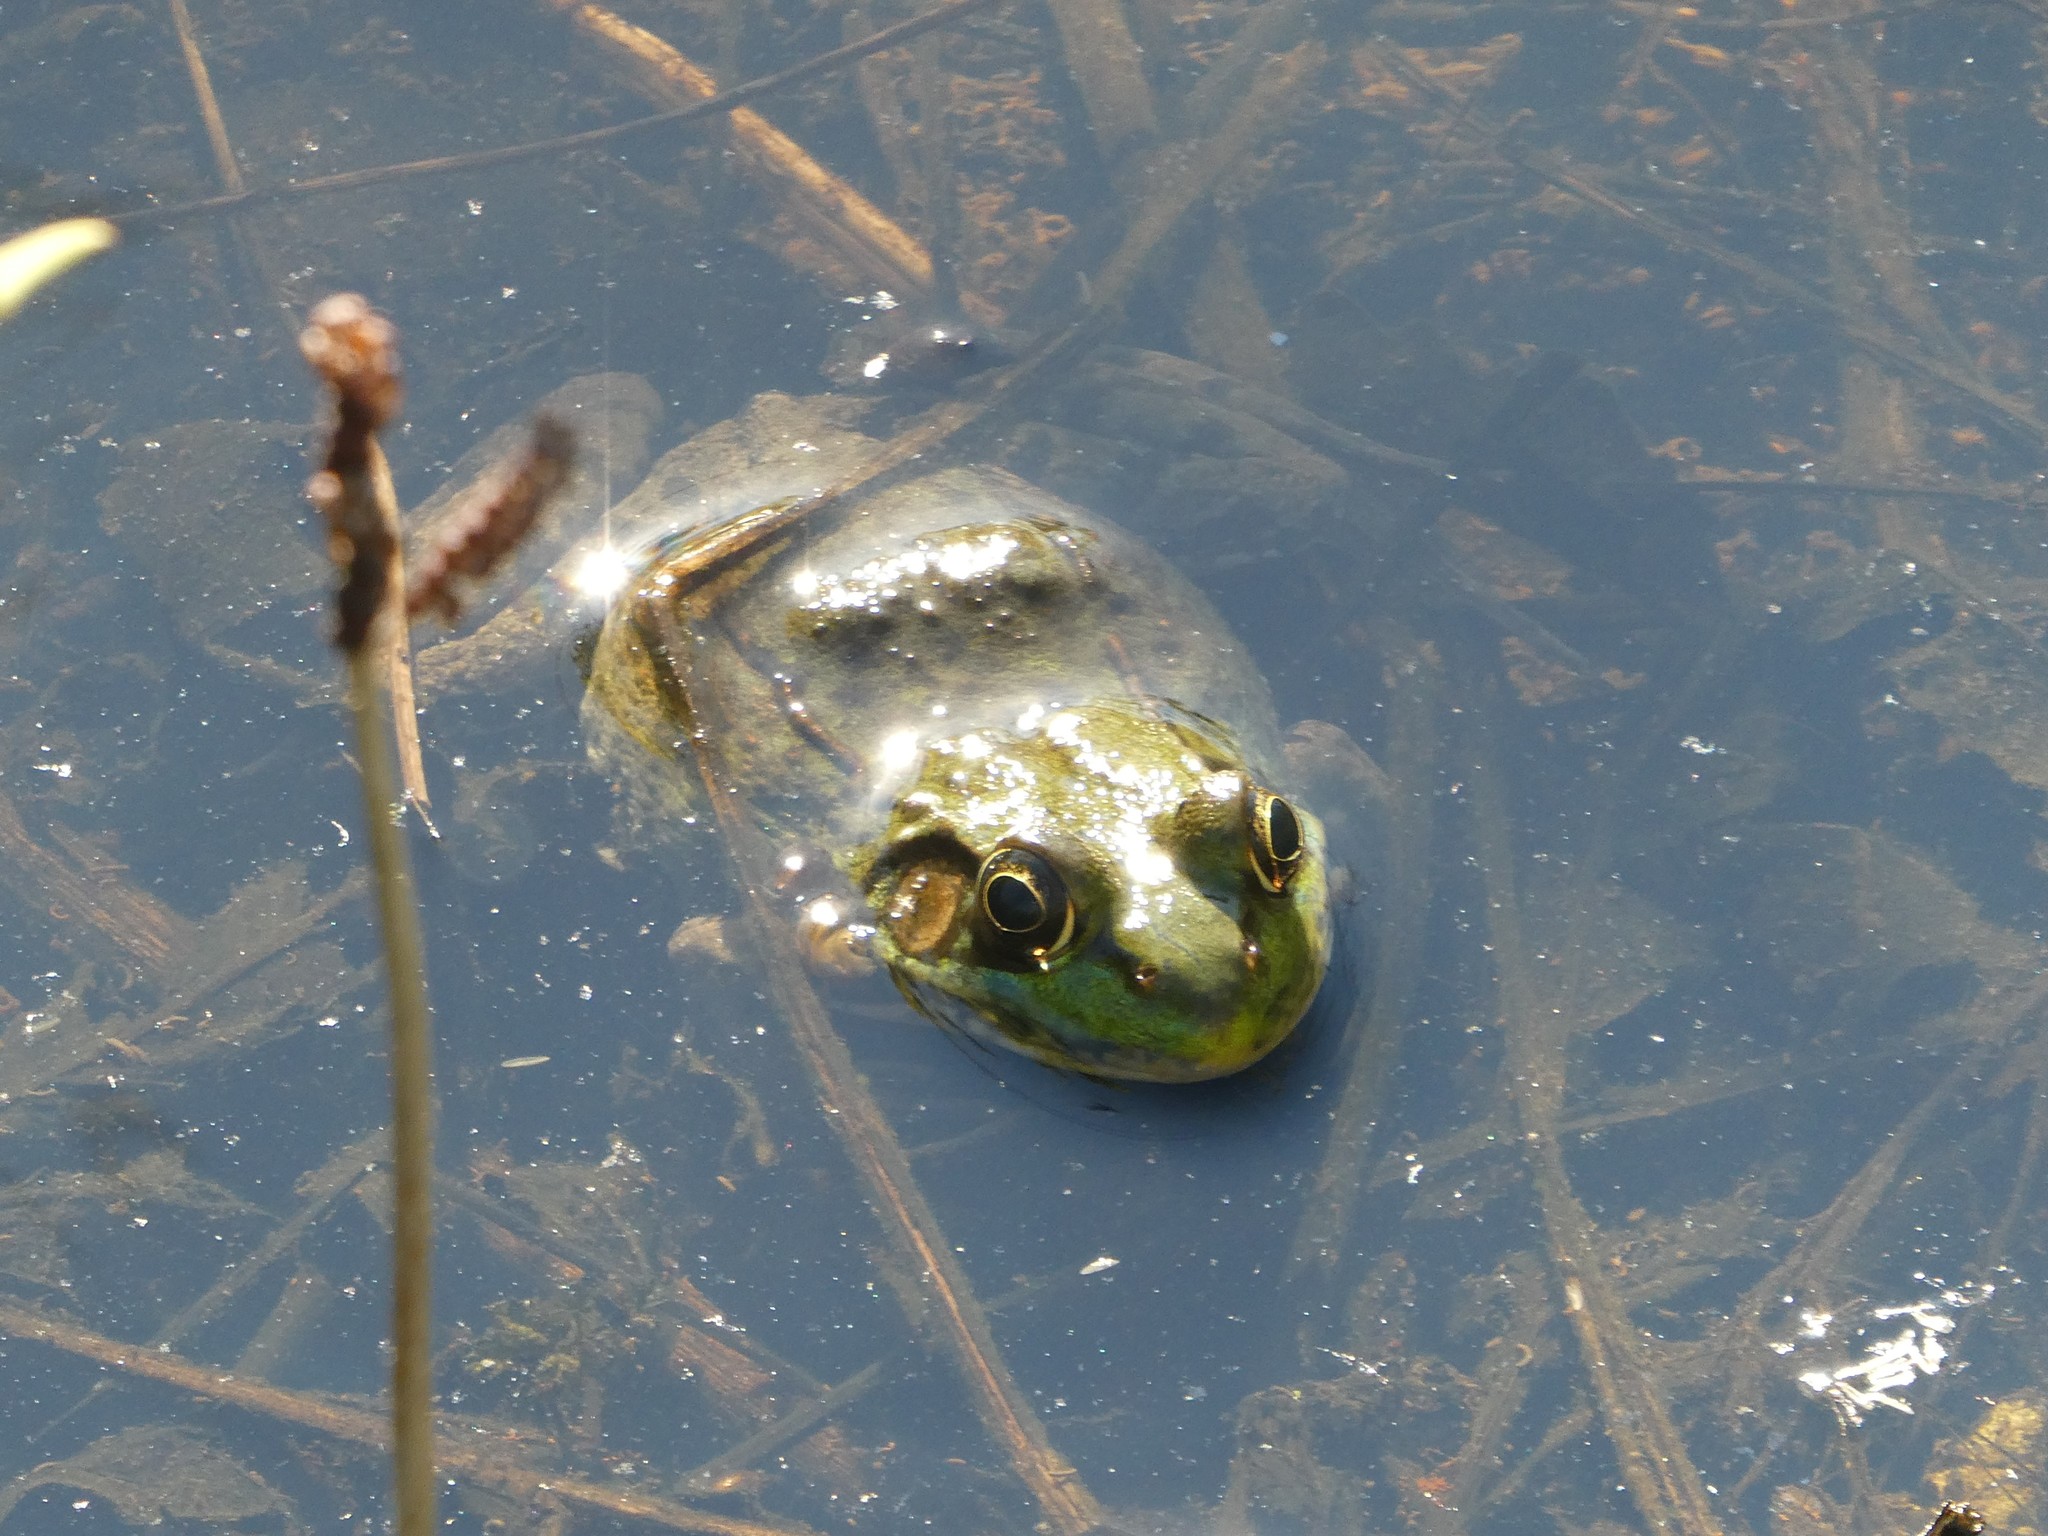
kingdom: Animalia
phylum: Chordata
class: Amphibia
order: Anura
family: Ranidae
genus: Lithobates
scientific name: Lithobates clamitans
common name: Green frog
